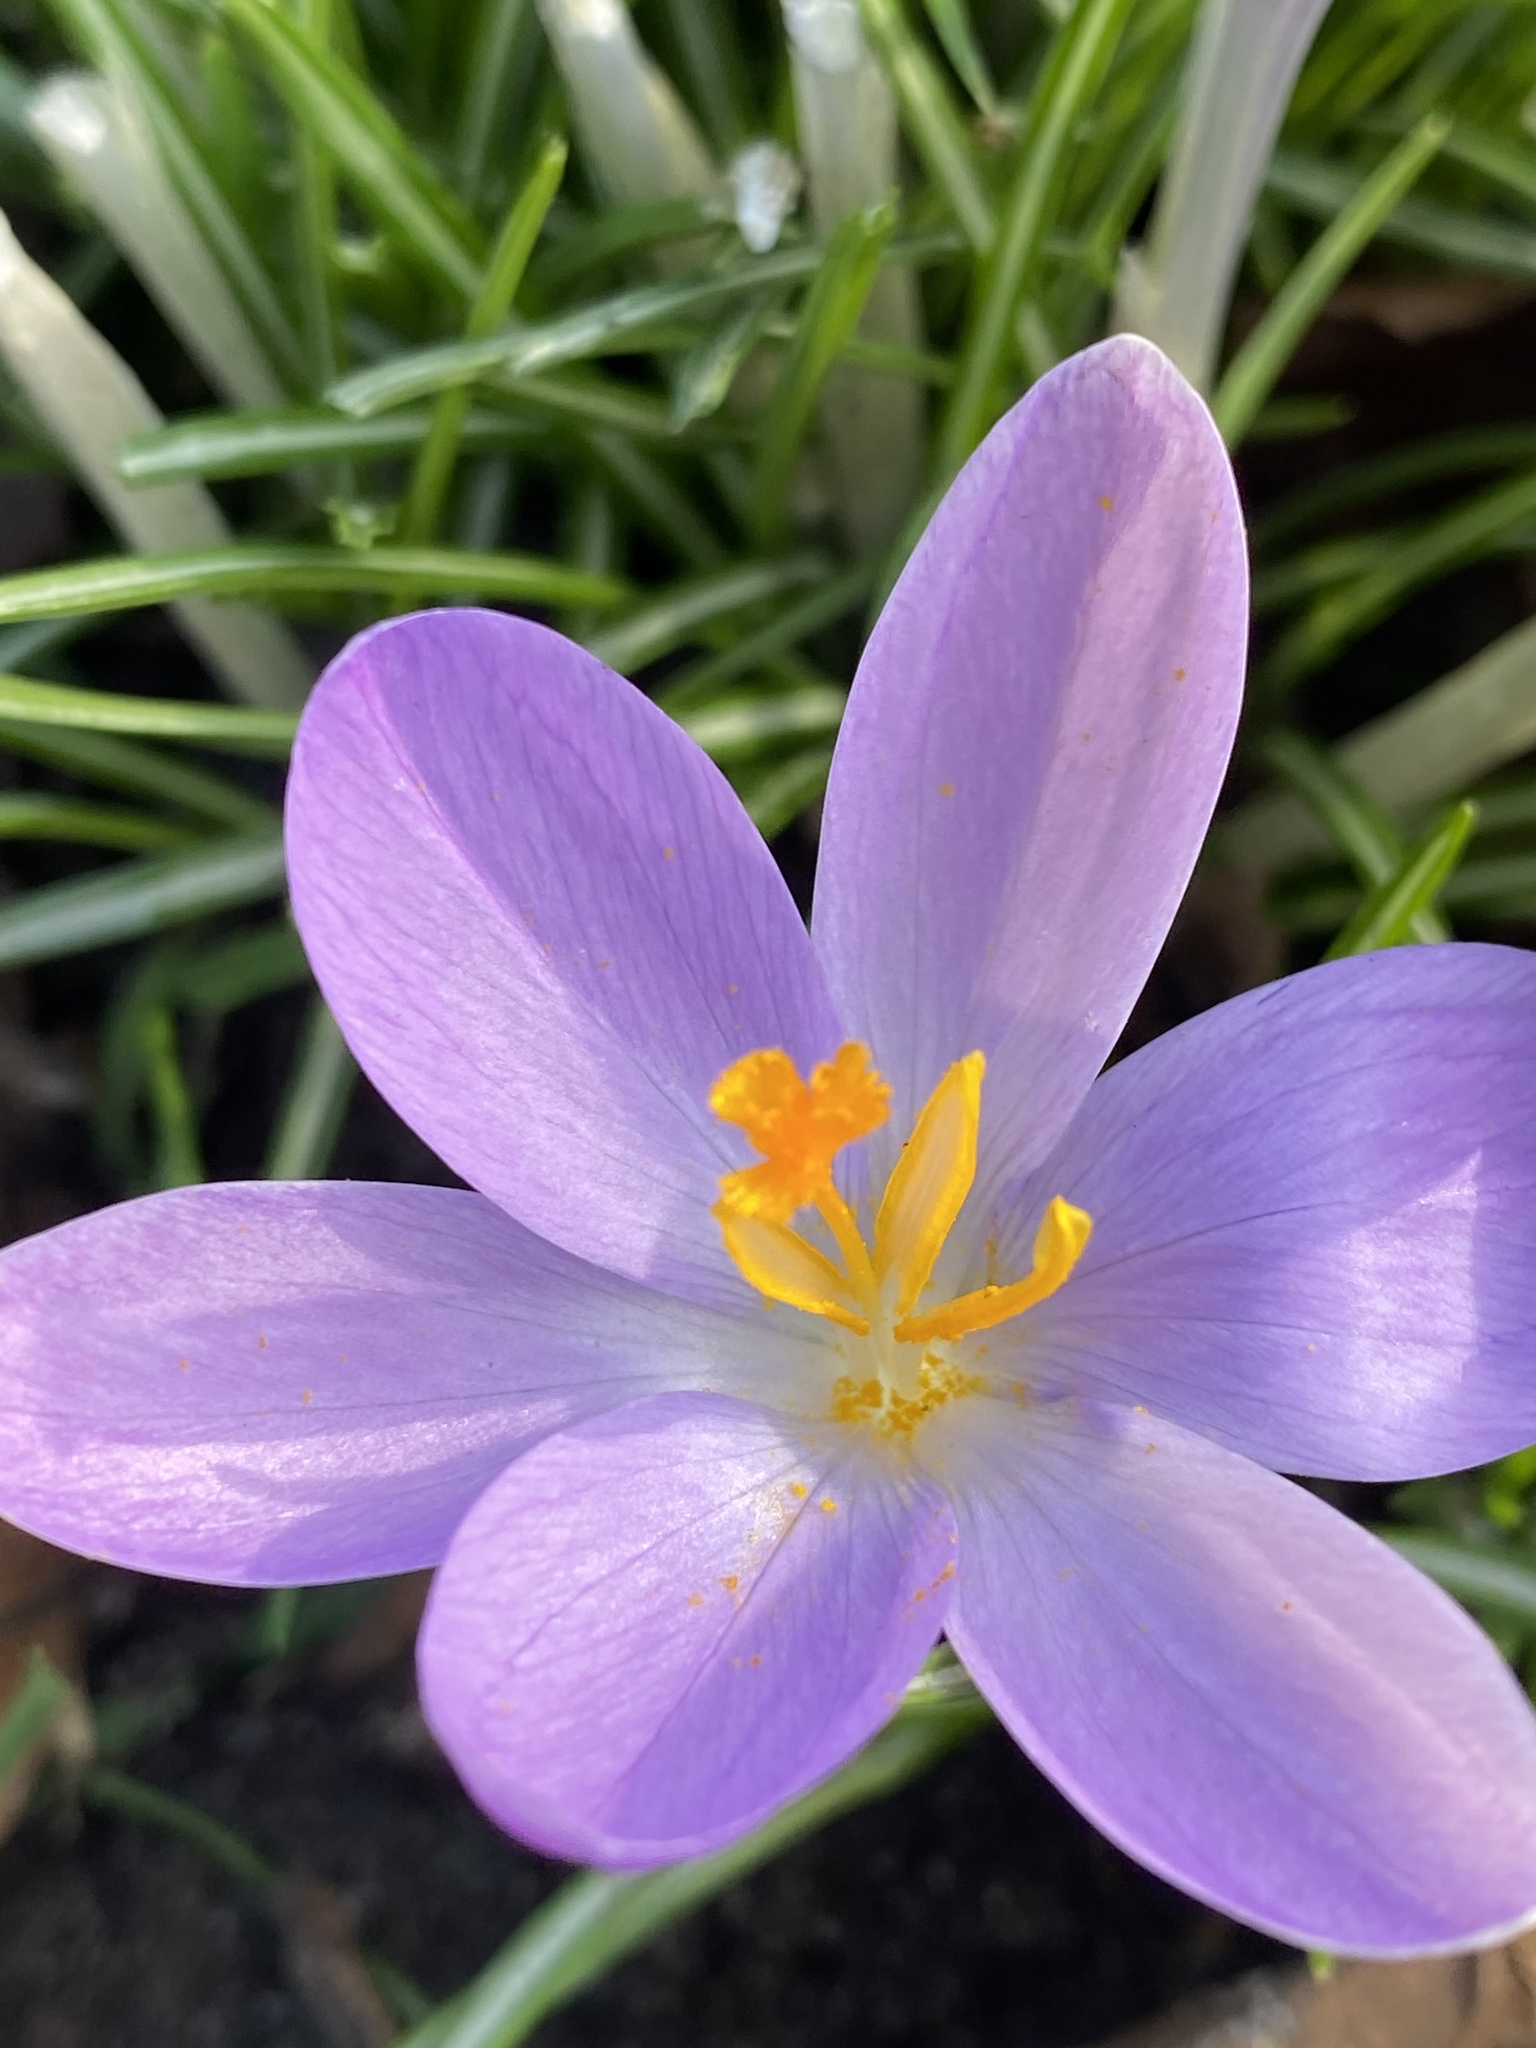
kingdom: Plantae
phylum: Tracheophyta
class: Liliopsida
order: Asparagales
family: Iridaceae
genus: Crocus
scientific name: Crocus tommasinianus
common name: Early crocus
